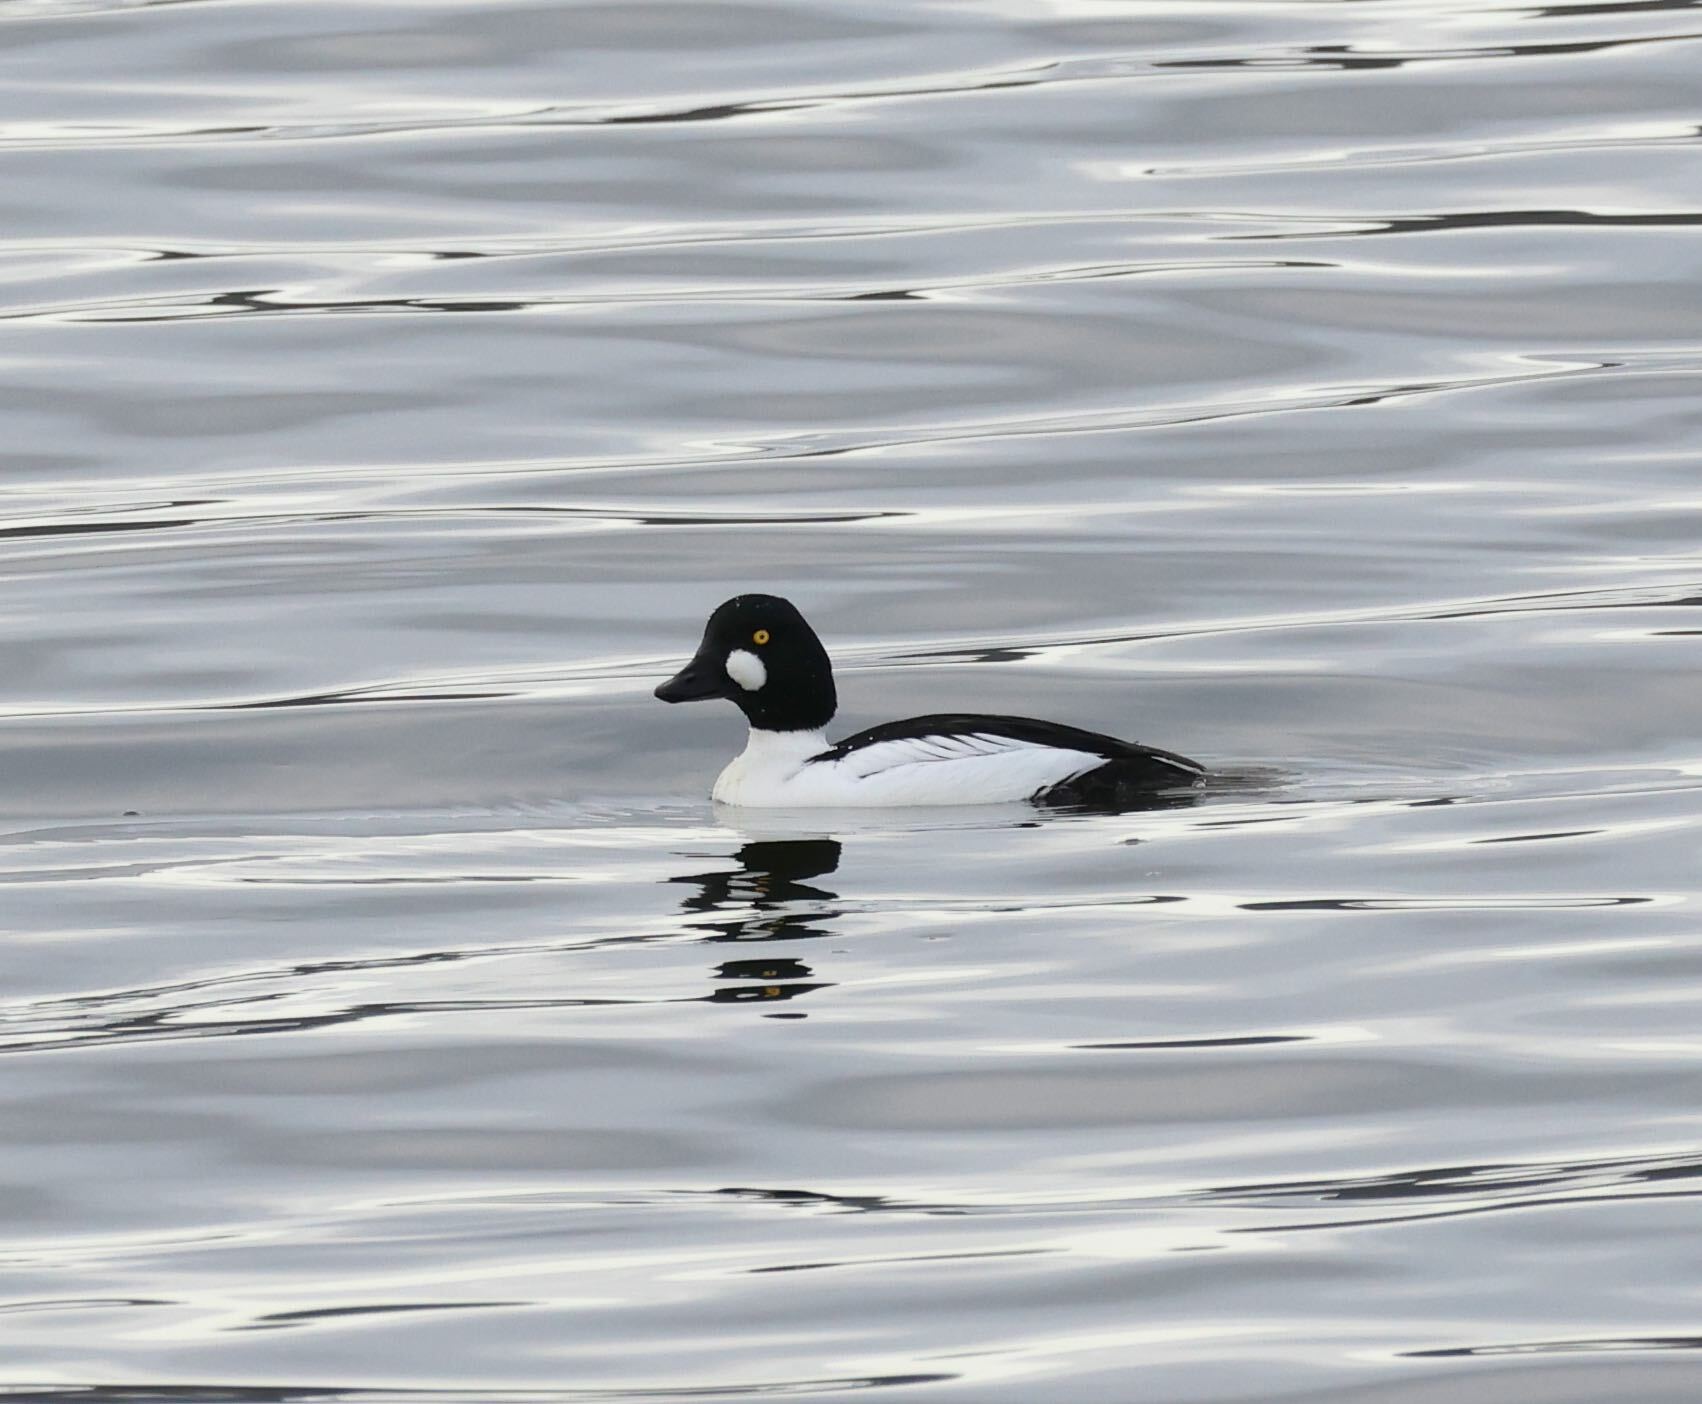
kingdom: Animalia
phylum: Chordata
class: Aves
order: Anseriformes
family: Anatidae
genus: Bucephala
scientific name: Bucephala clangula
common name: Common goldeneye
